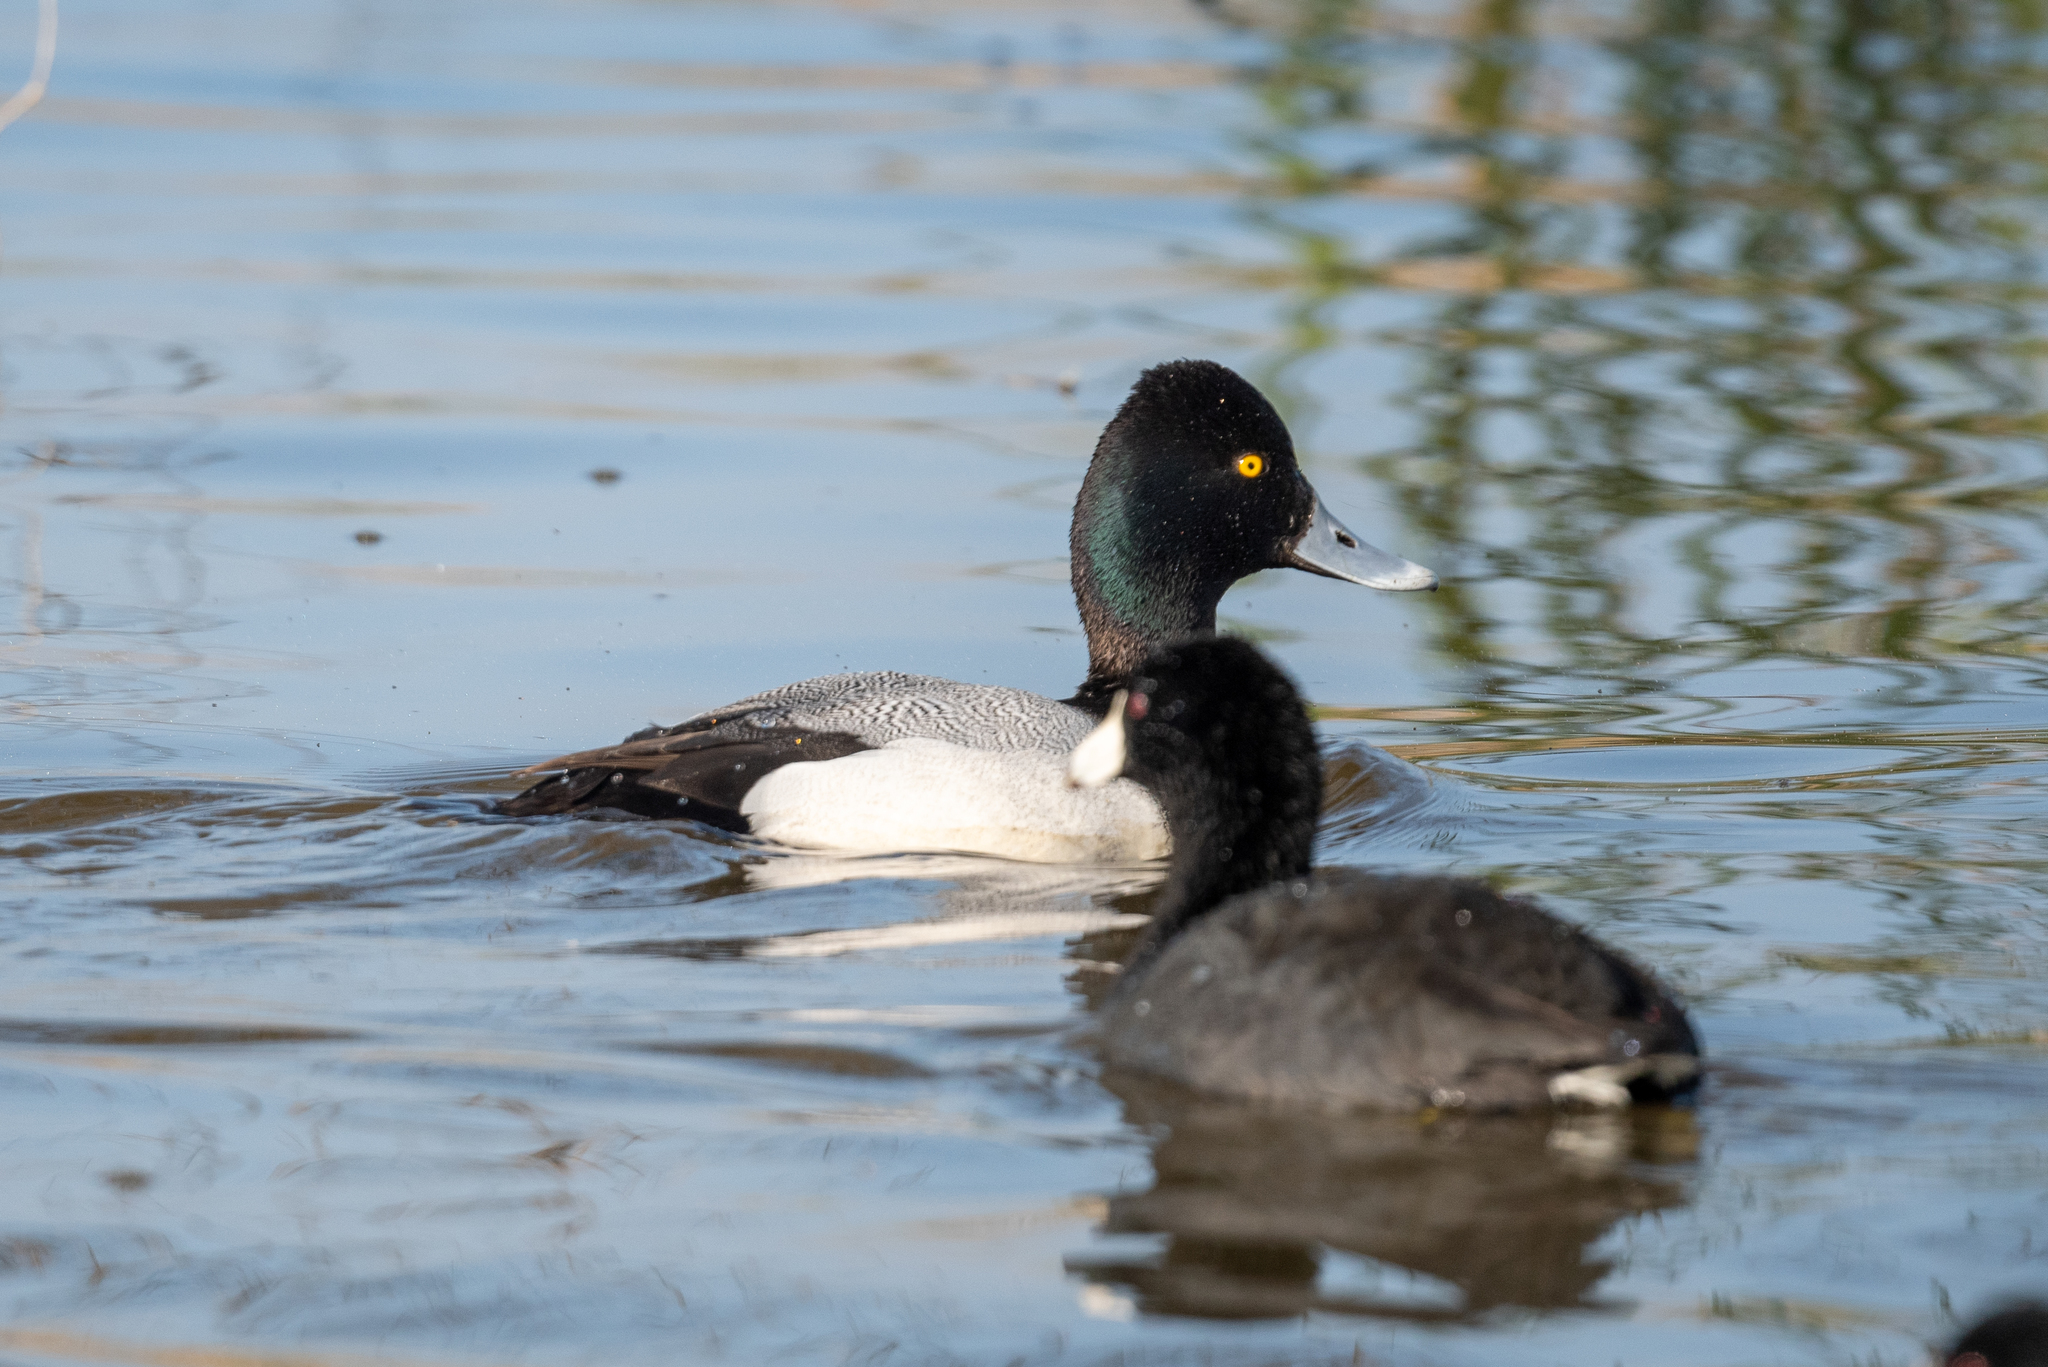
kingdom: Animalia
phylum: Chordata
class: Aves
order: Anseriformes
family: Anatidae
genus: Aythya
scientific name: Aythya affinis
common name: Lesser scaup
